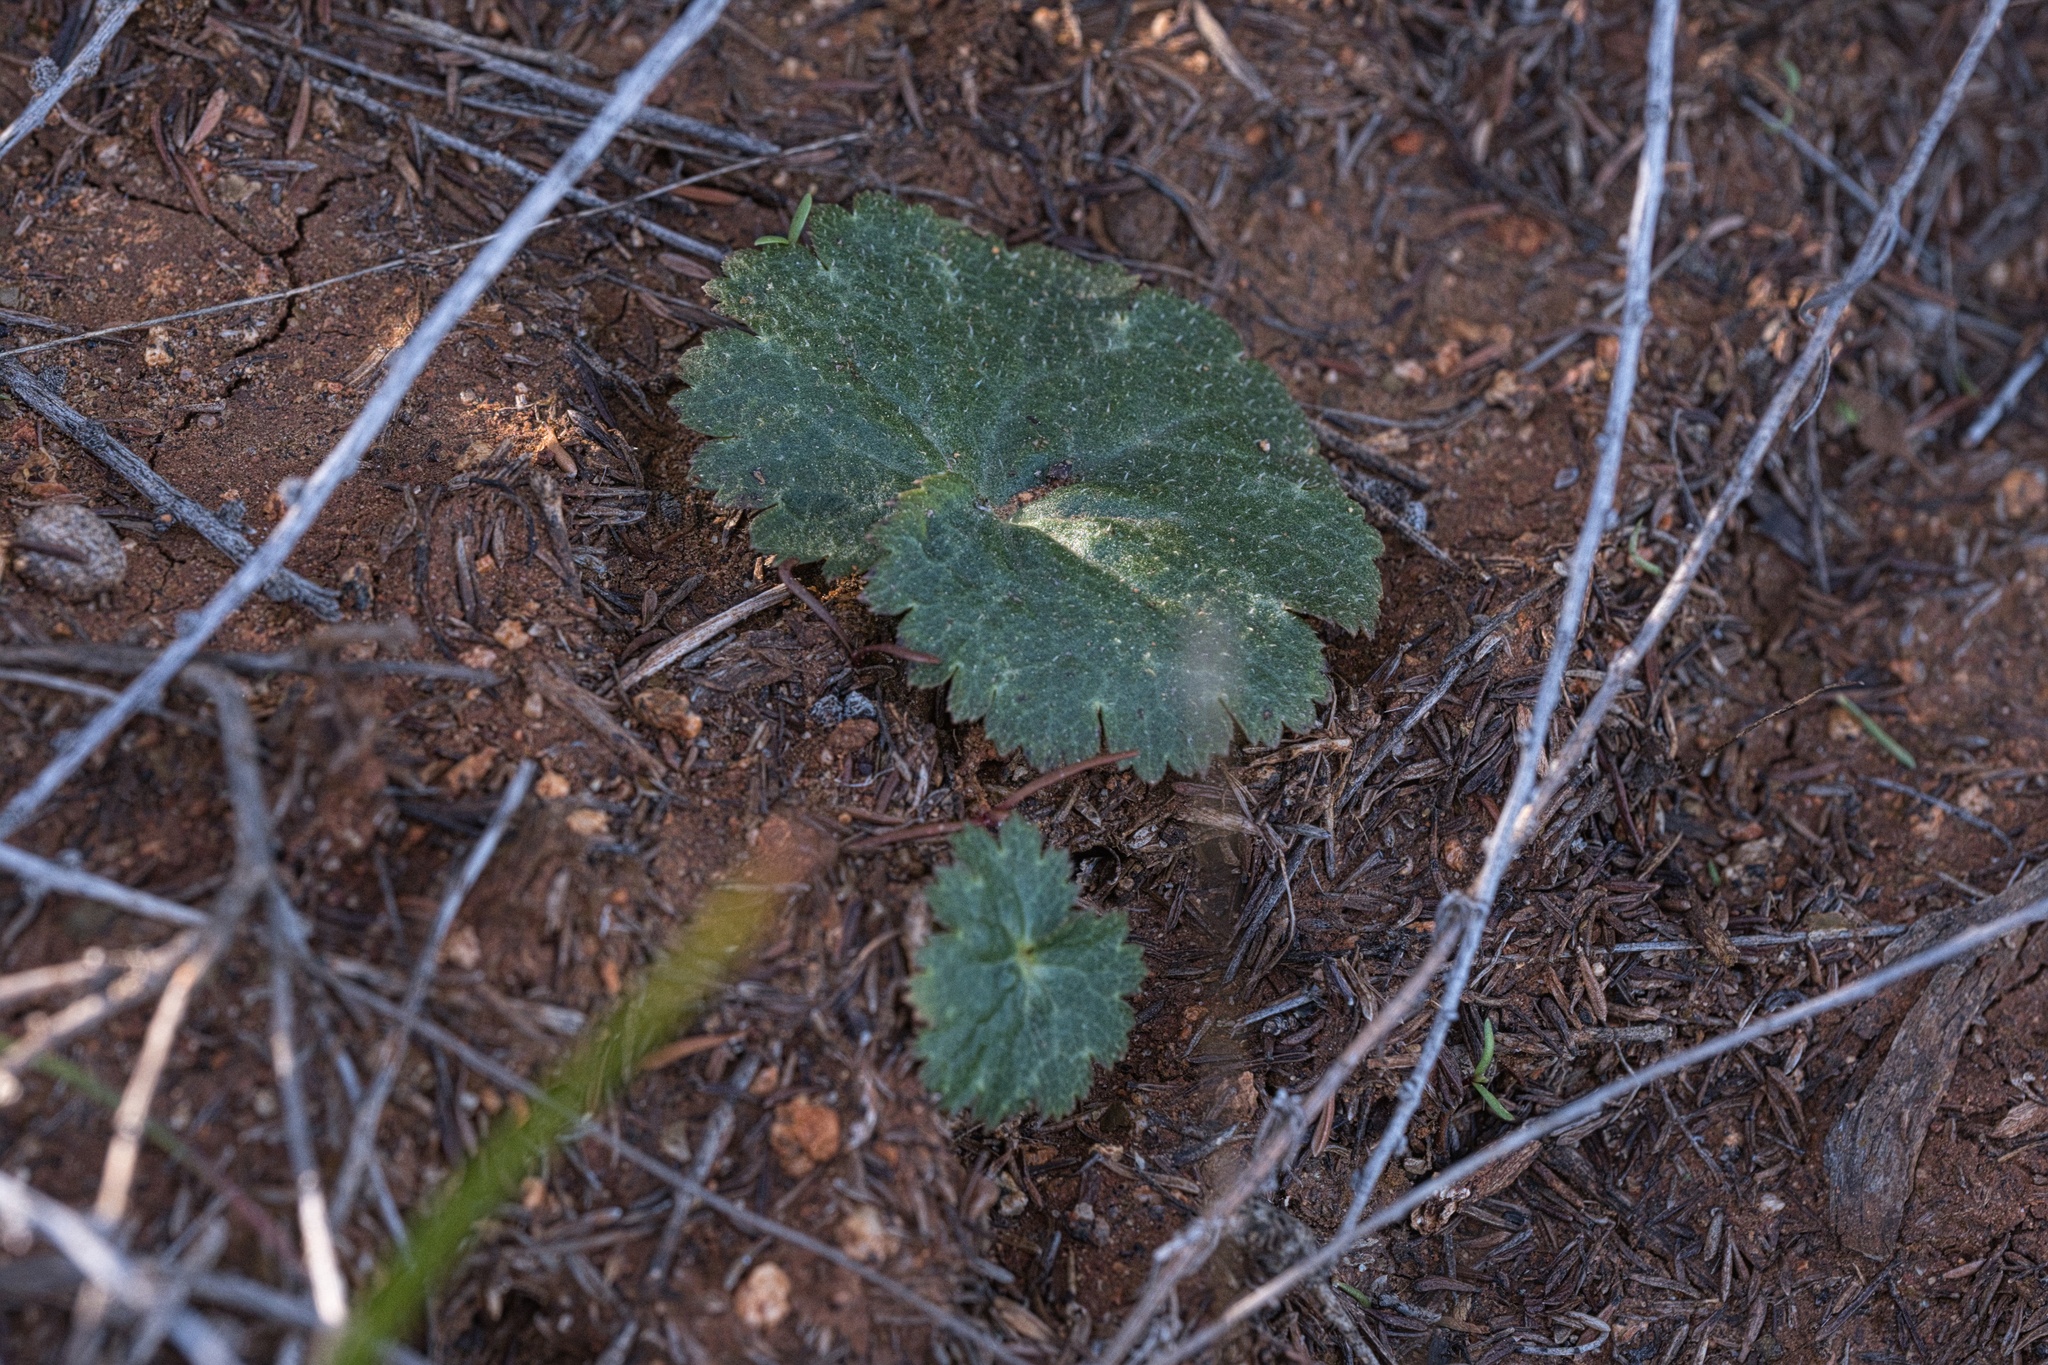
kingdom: Plantae
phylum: Tracheophyta
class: Magnoliopsida
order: Saxifragales
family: Saxifragaceae
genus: Jepsonia
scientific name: Jepsonia parryi
